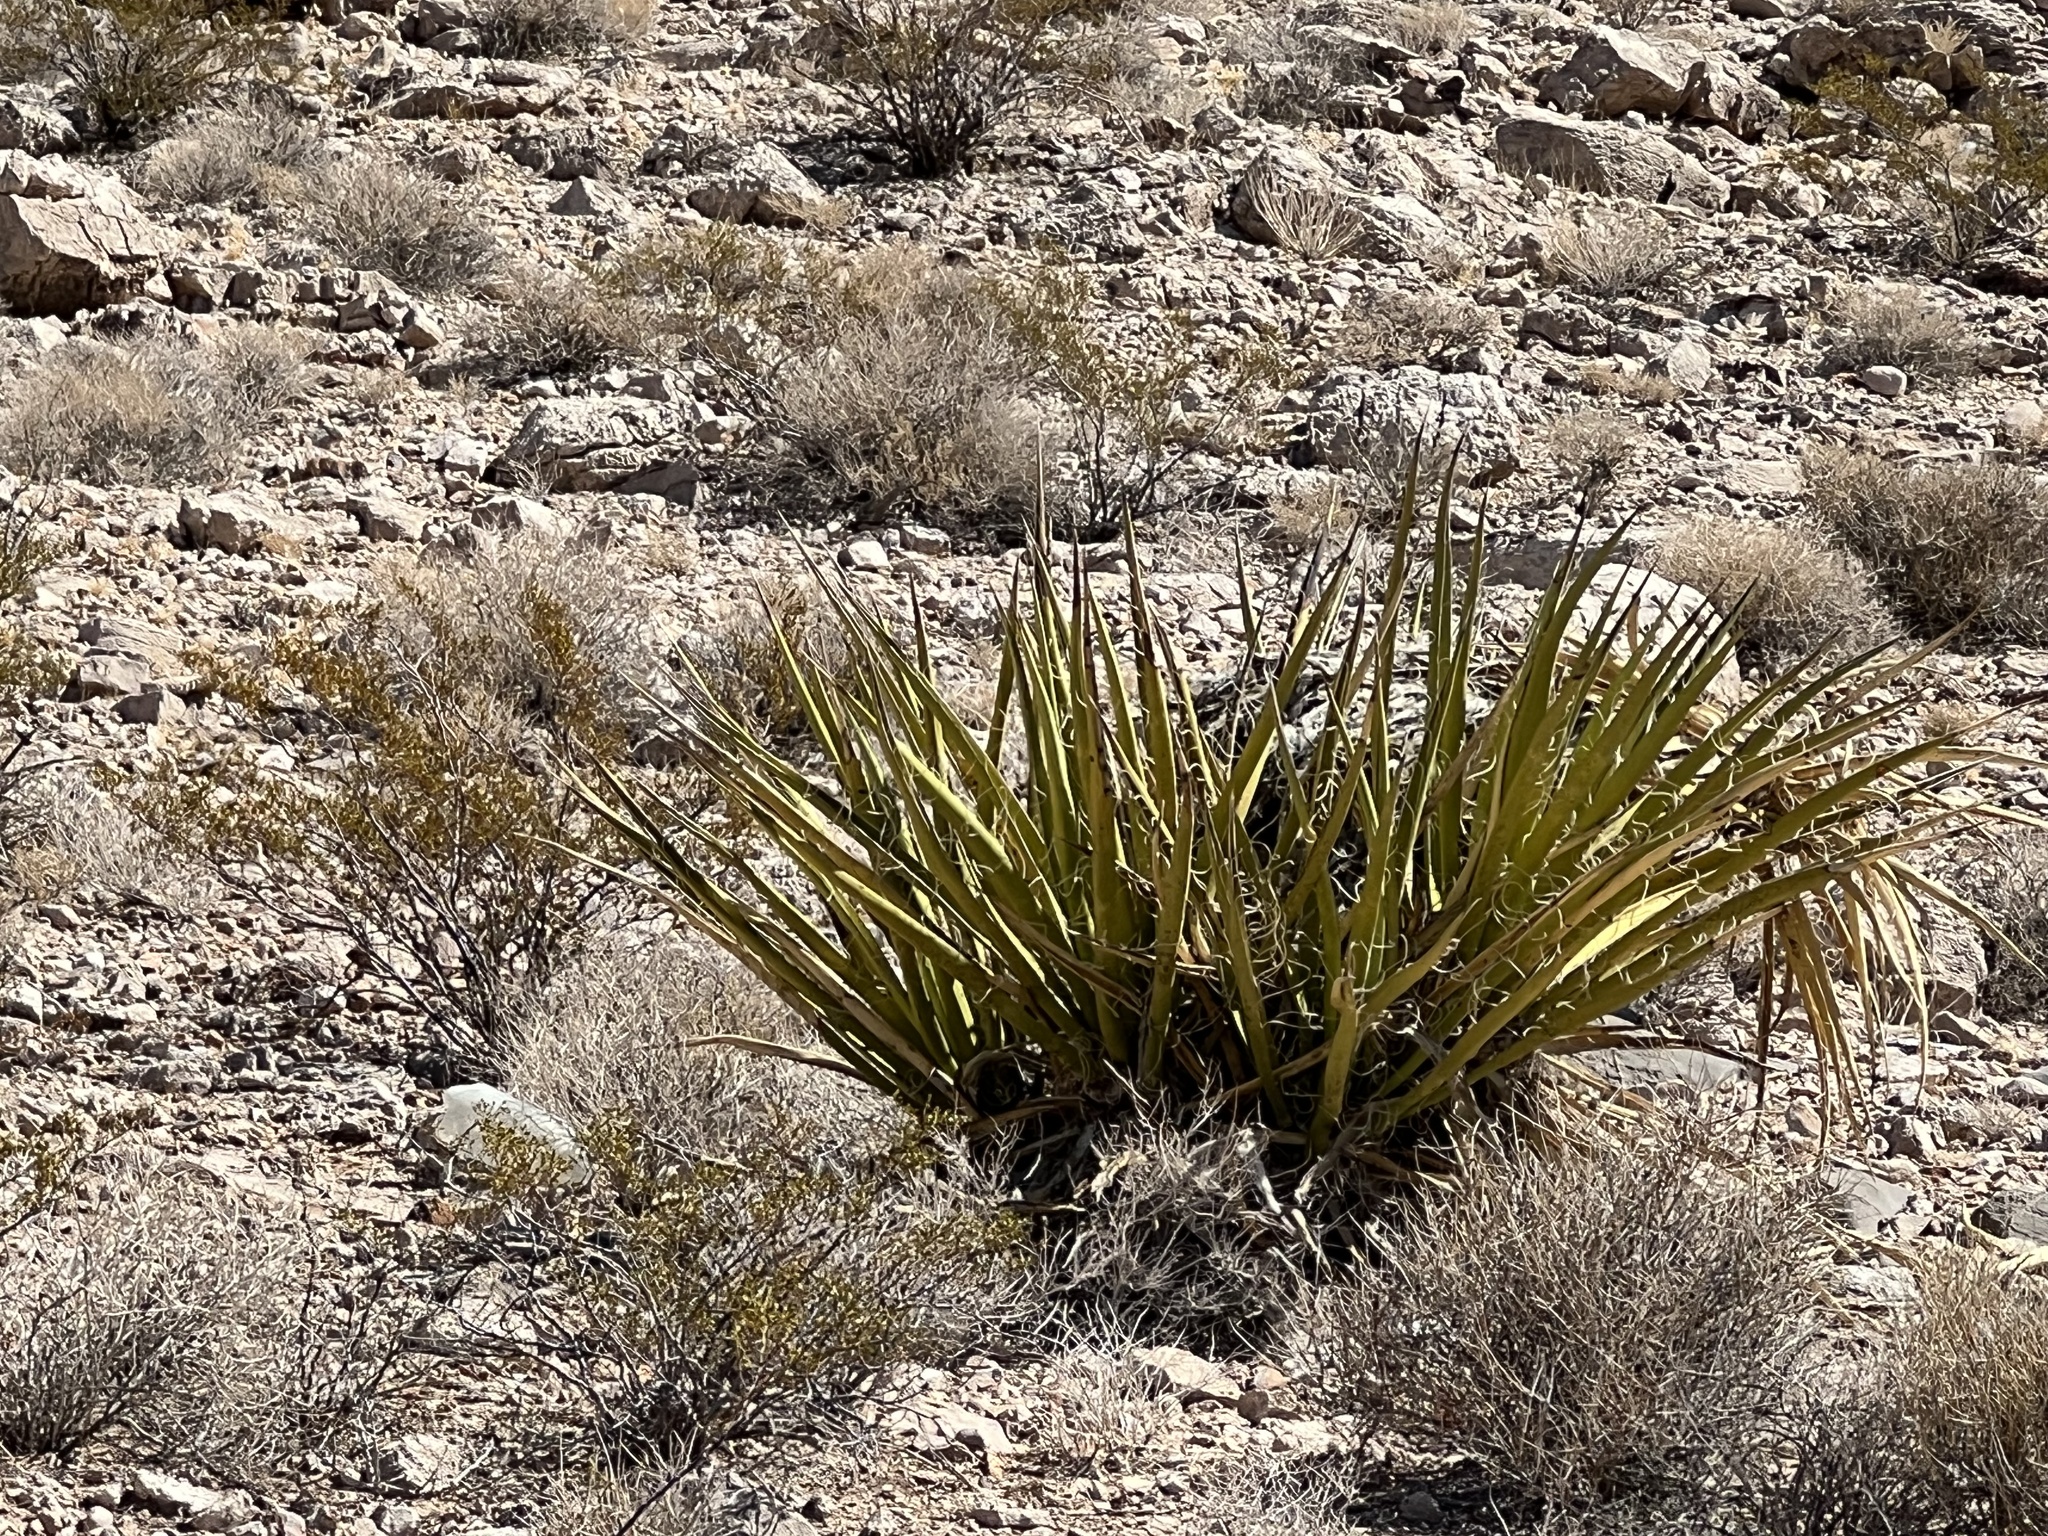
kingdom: Plantae
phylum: Tracheophyta
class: Liliopsida
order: Asparagales
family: Asparagaceae
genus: Yucca
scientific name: Yucca schidigera
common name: Mojave yucca
